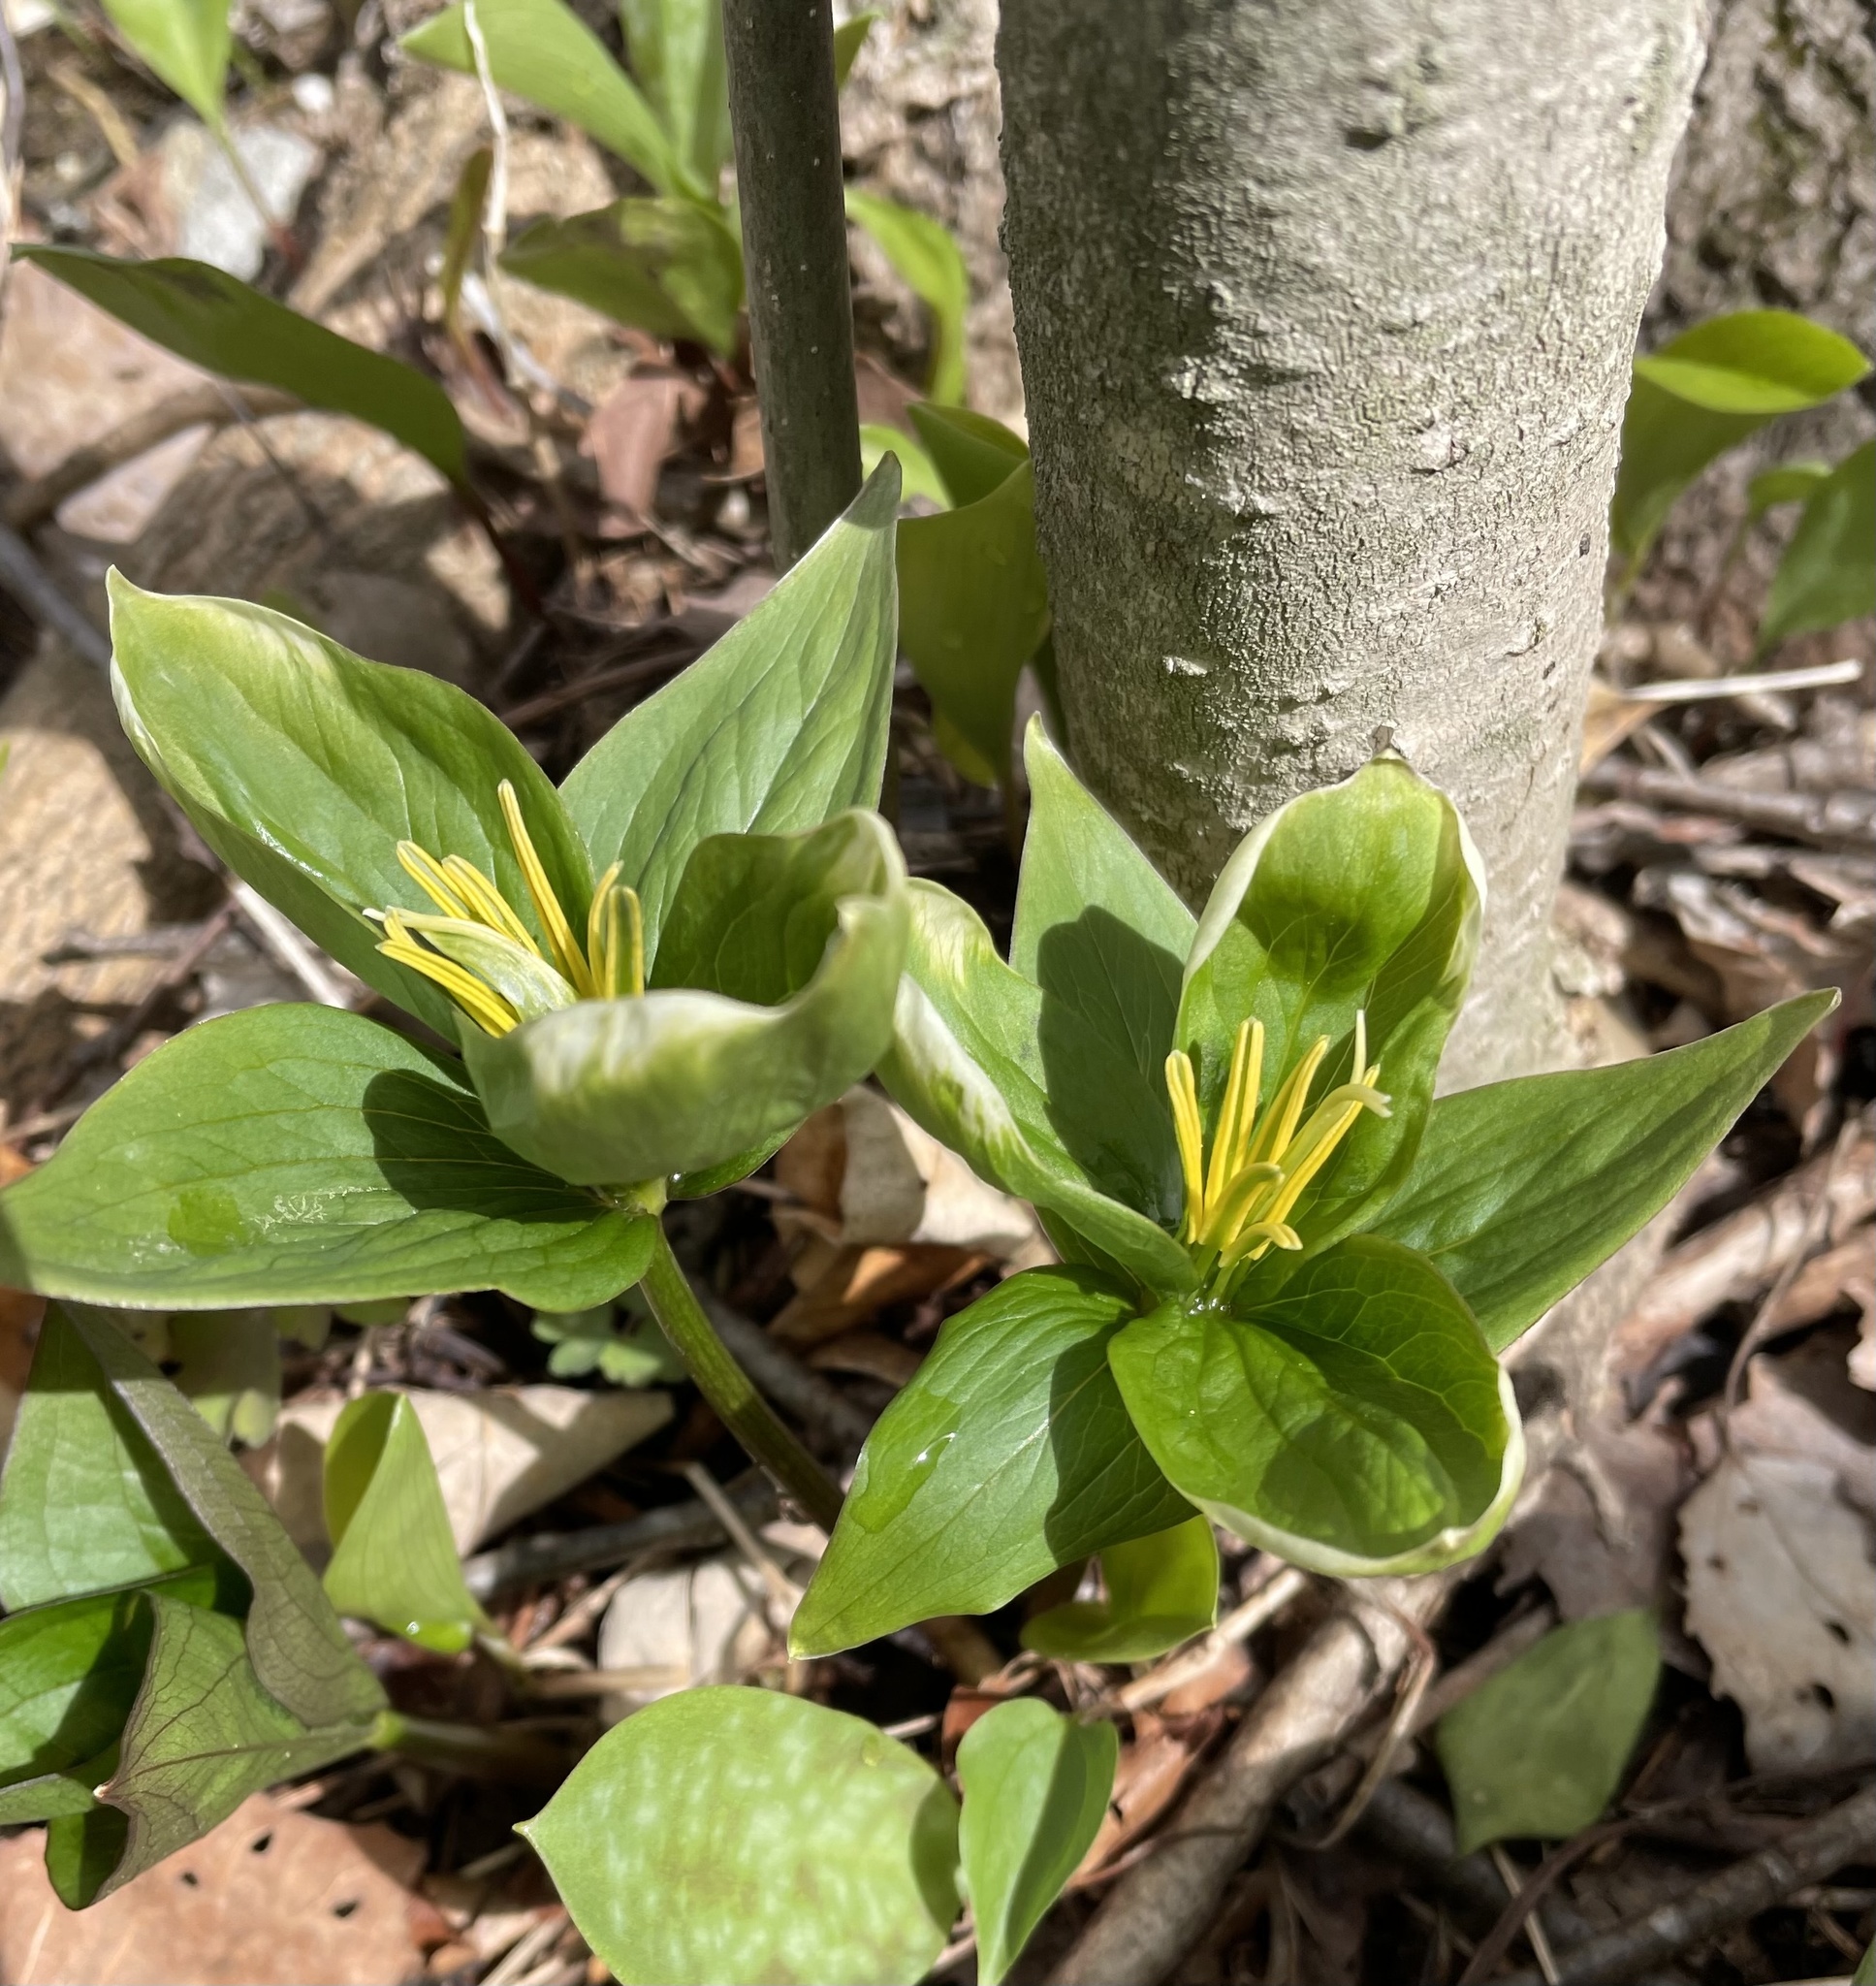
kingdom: Plantae
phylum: Tracheophyta
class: Liliopsida
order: Liliales
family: Melanthiaceae
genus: Trillium
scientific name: Trillium grandiflorum
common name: Great white trillium
